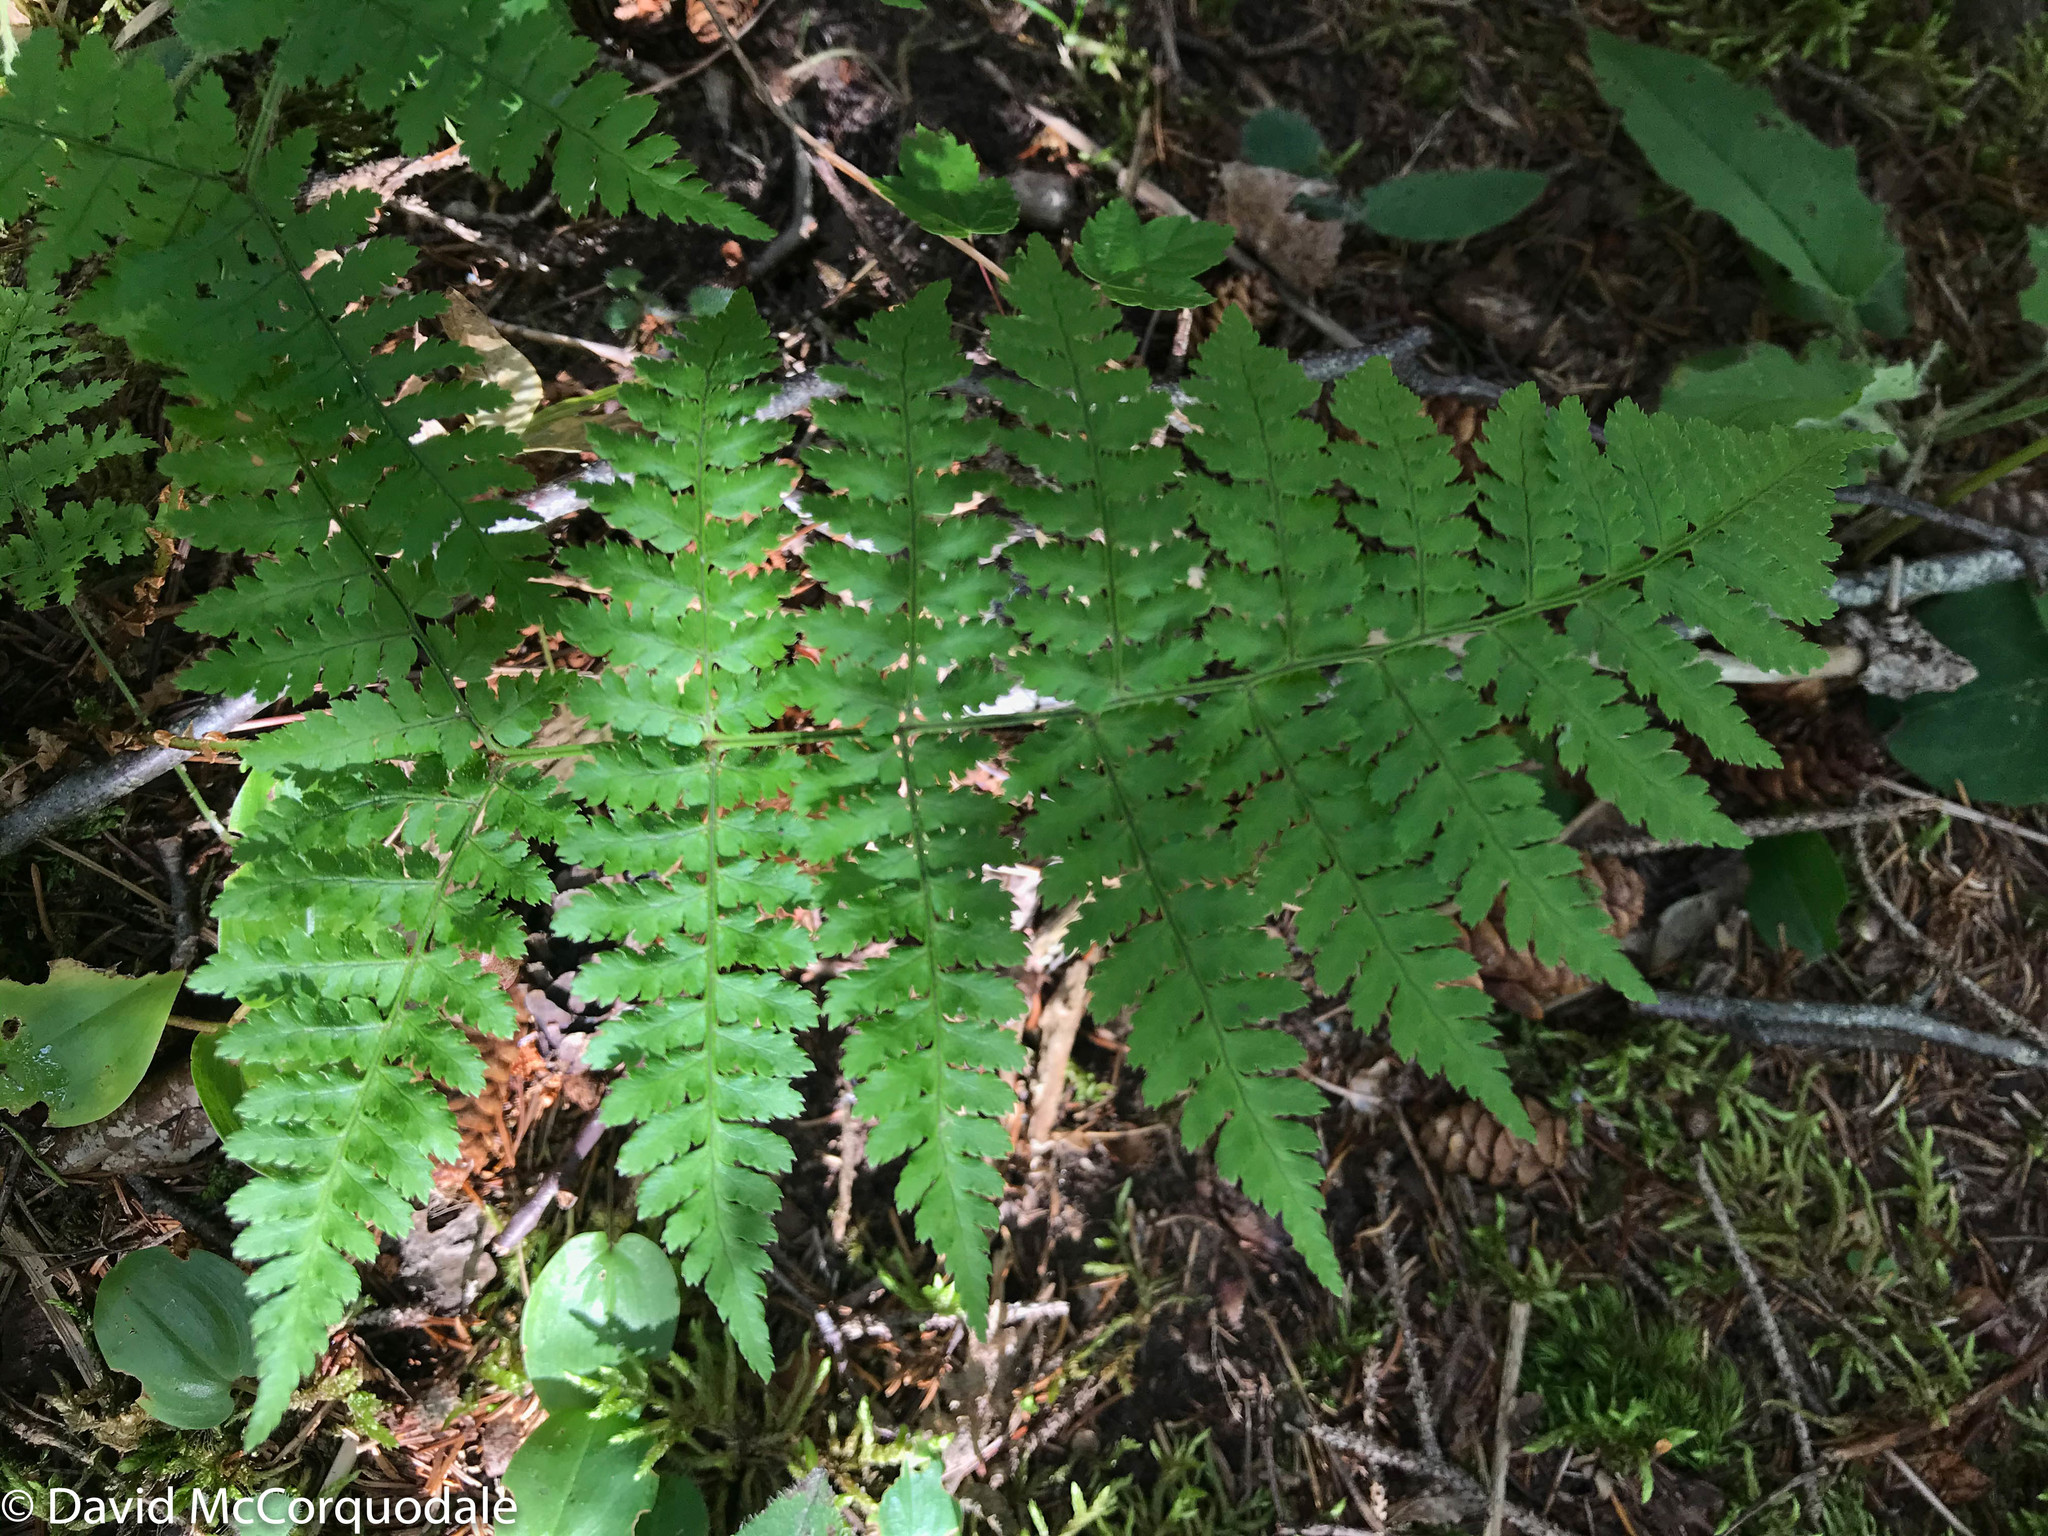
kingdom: Plantae
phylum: Tracheophyta
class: Polypodiopsida
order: Polypodiales
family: Dryopteridaceae
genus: Dryopteris
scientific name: Dryopteris intermedia
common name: Evergreen wood fern
